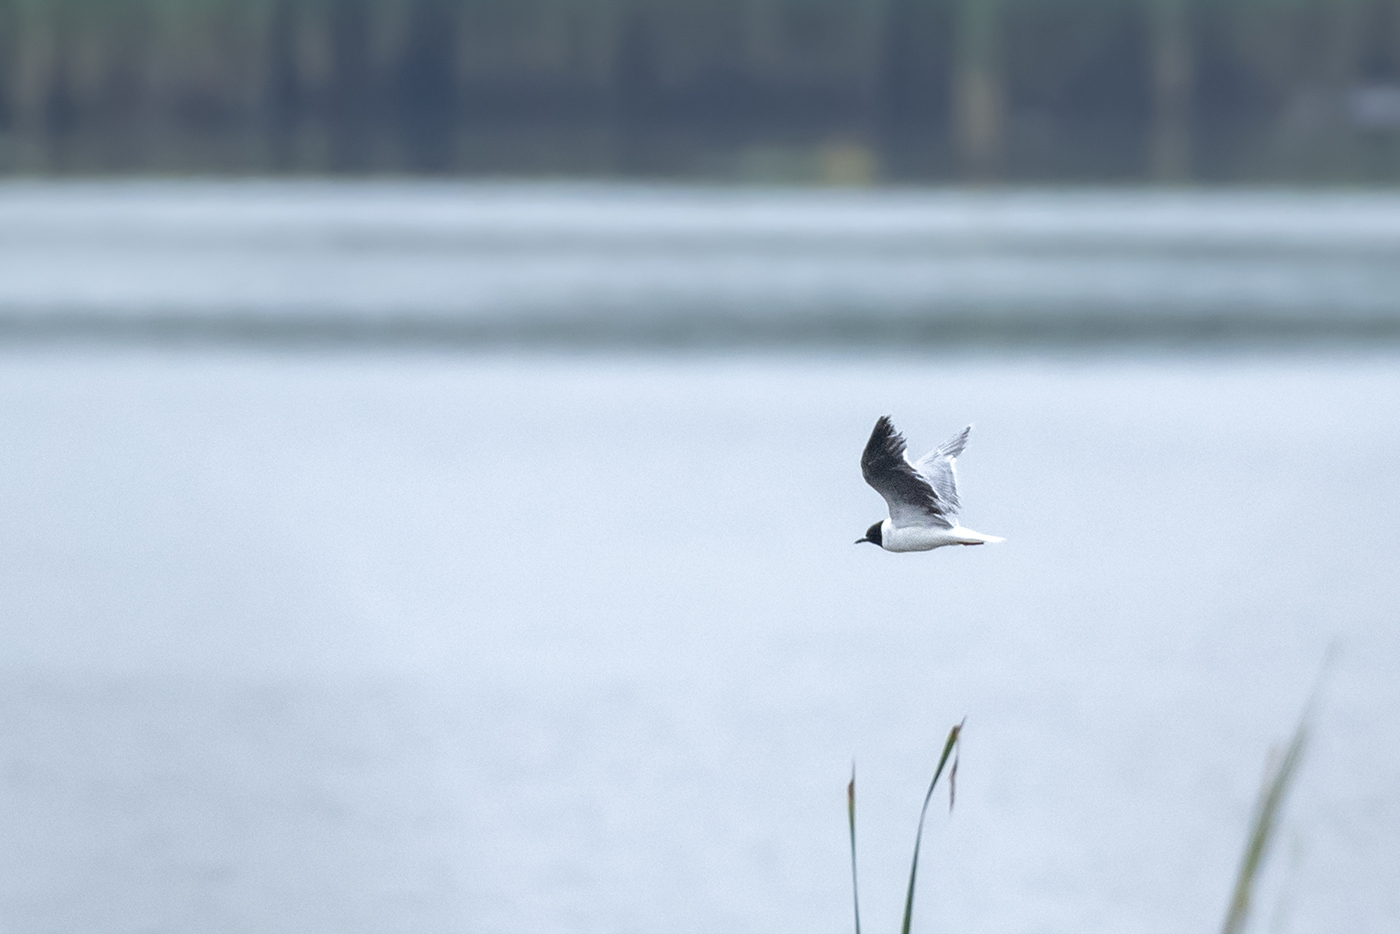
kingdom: Animalia
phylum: Chordata
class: Aves
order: Charadriiformes
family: Laridae
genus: Hydrocoloeus
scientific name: Hydrocoloeus minutus
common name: Little gull
